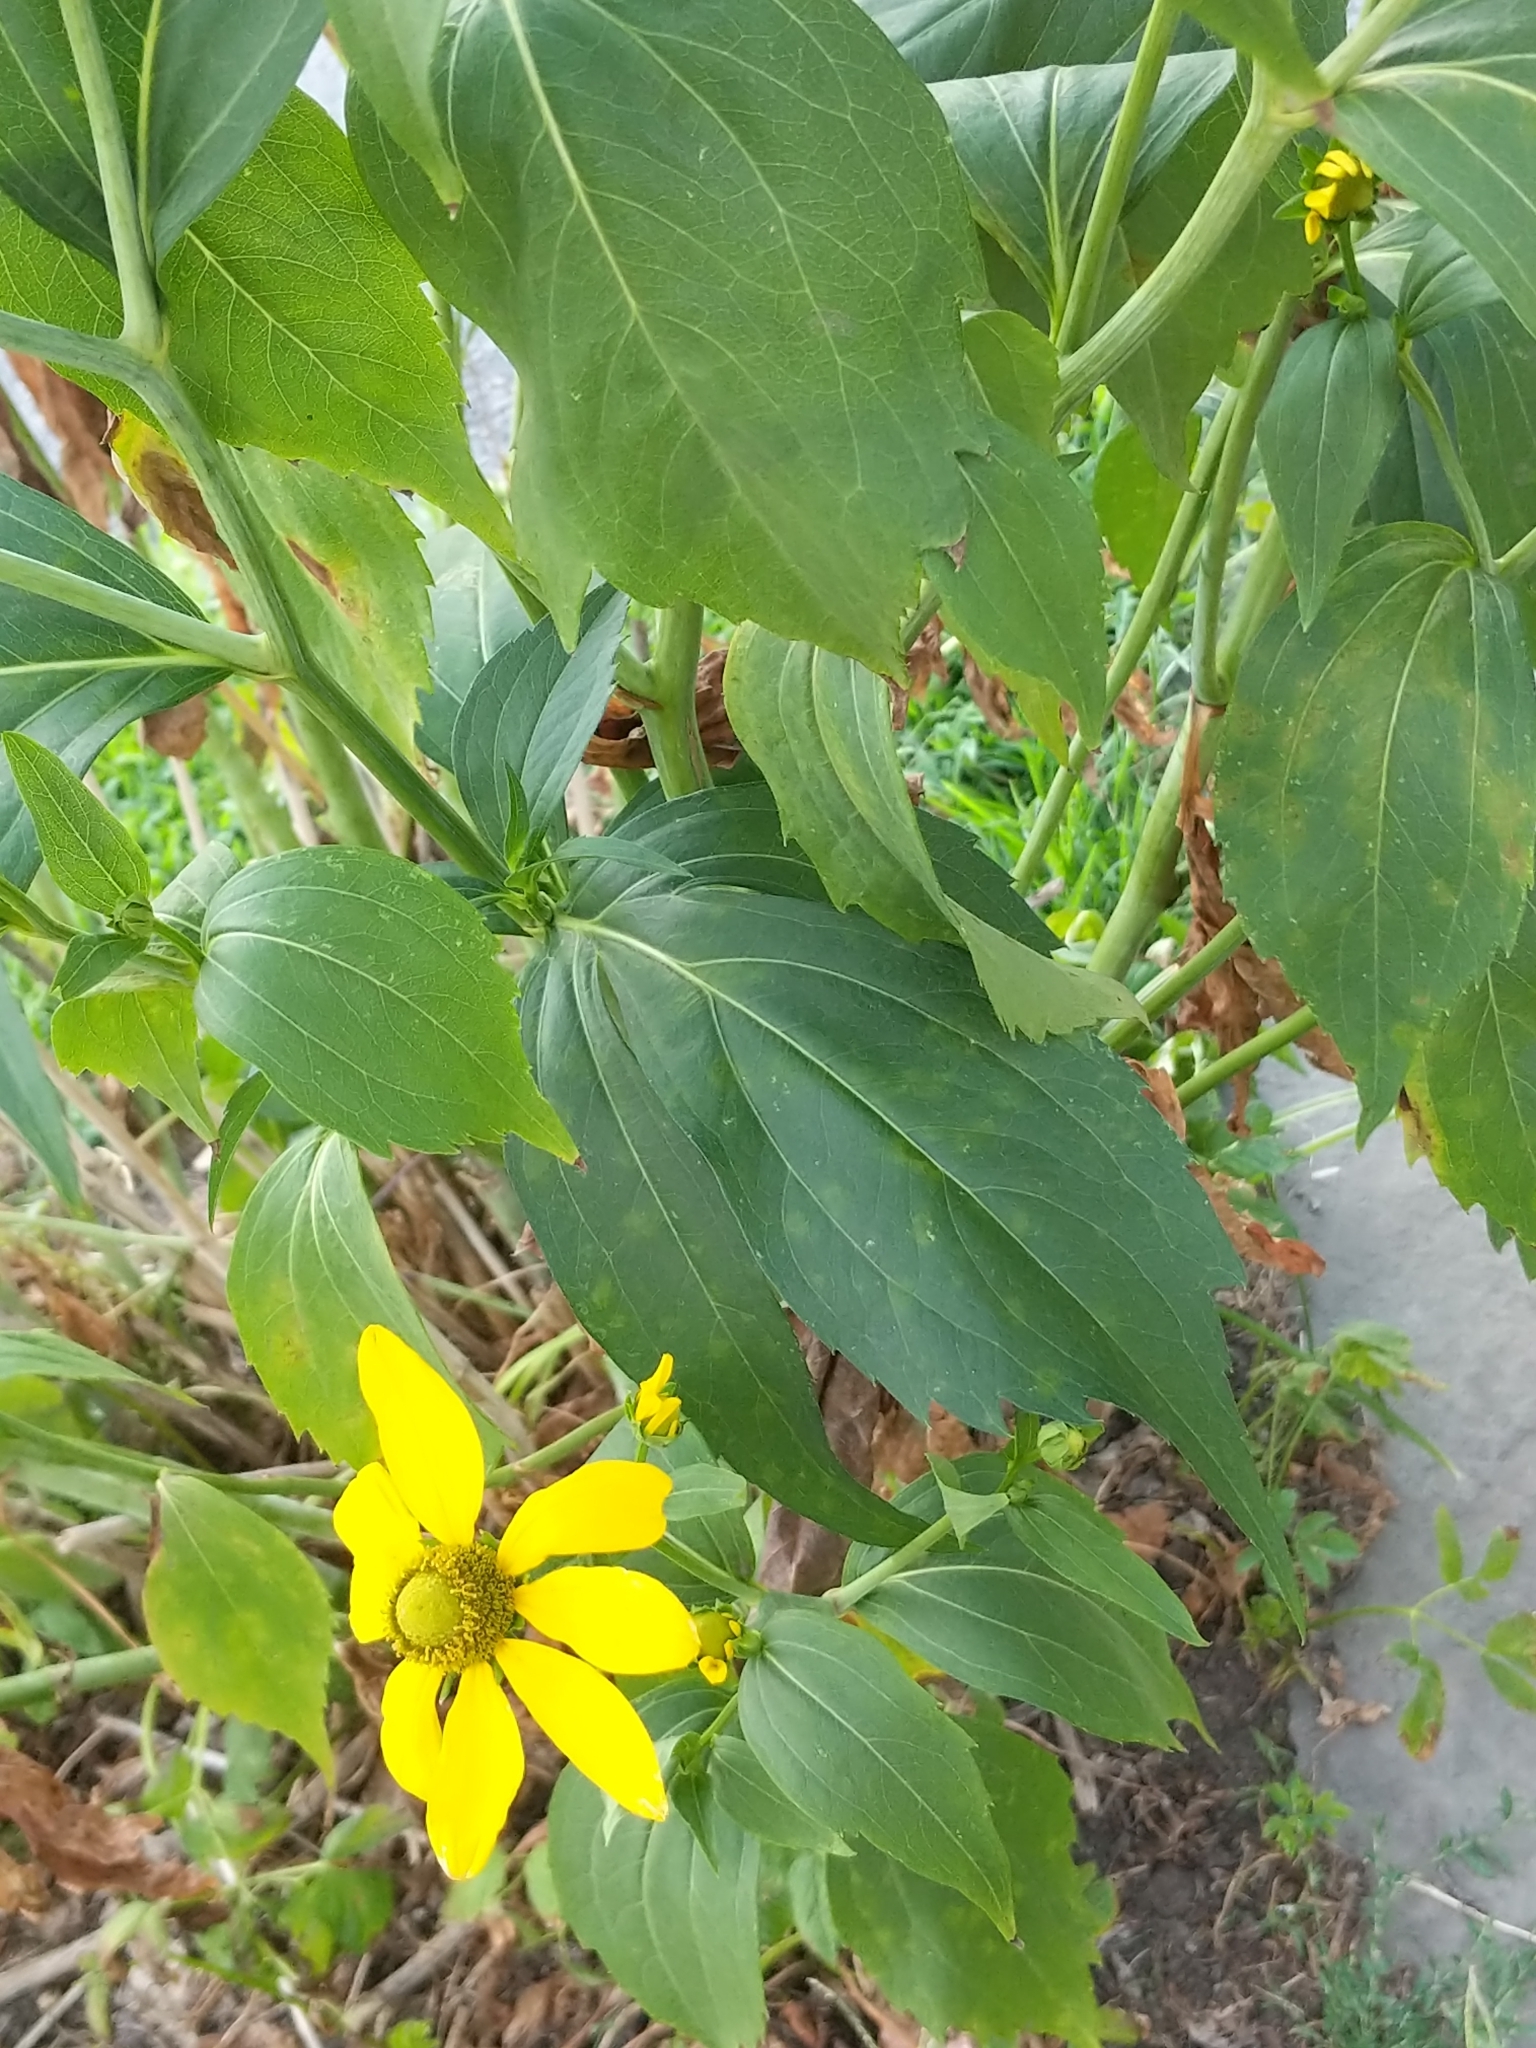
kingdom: Plantae
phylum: Tracheophyta
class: Magnoliopsida
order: Asterales
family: Asteraceae
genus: Rudbeckia
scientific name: Rudbeckia laciniata
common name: Coneflower
